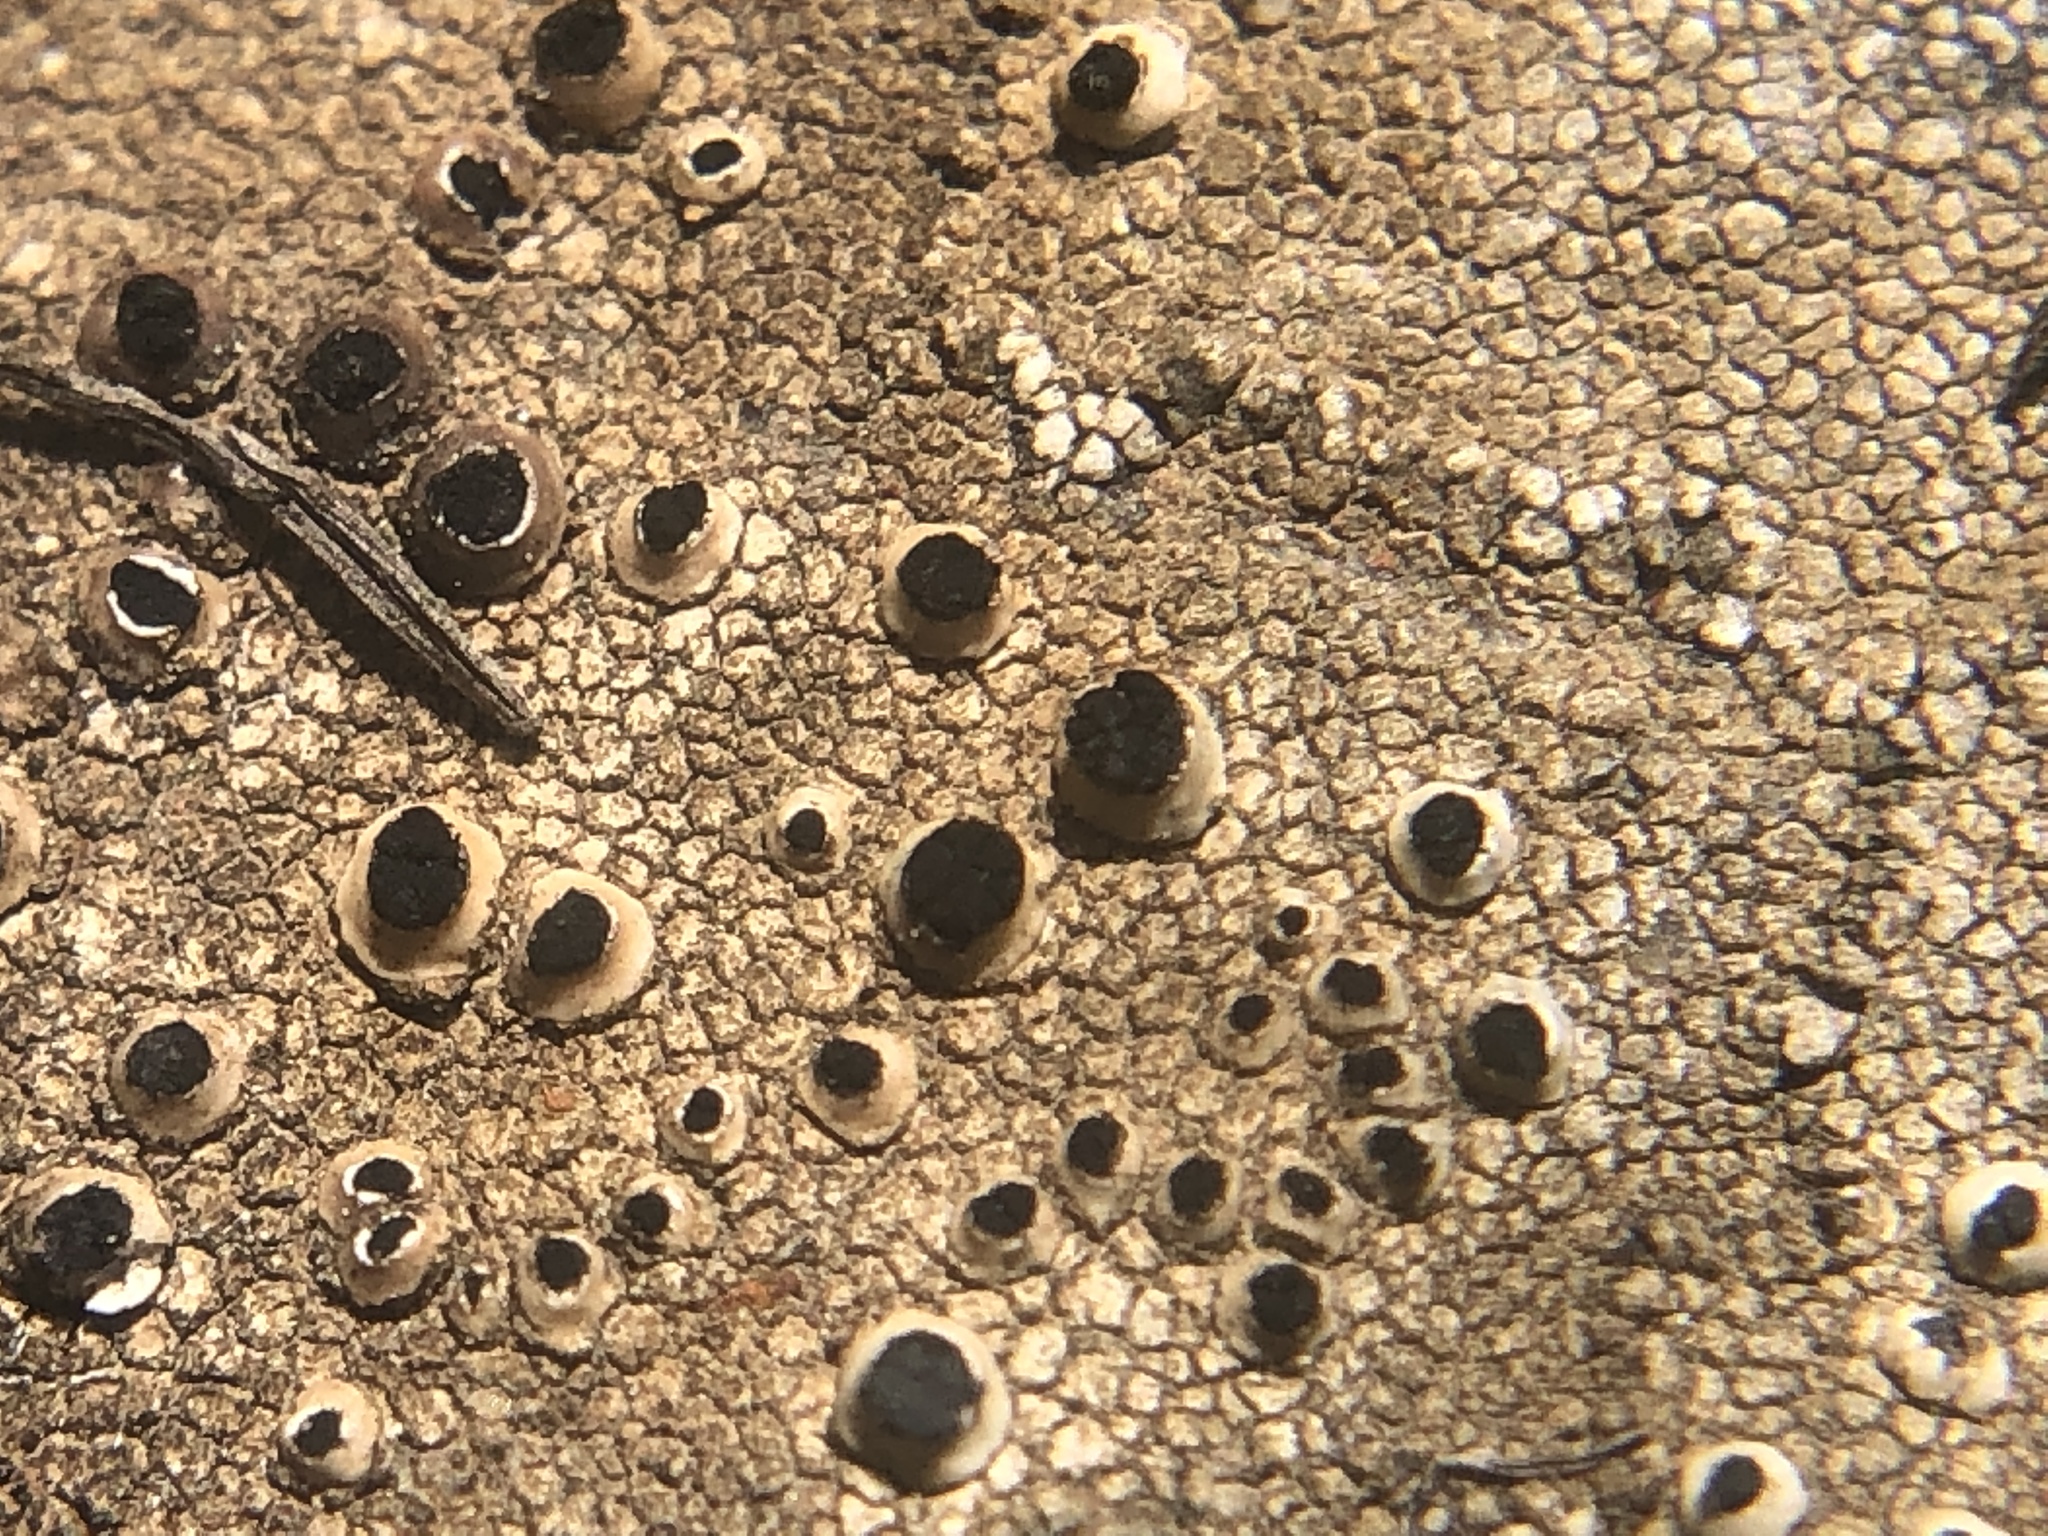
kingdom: Fungi
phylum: Ascomycota
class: Lecanoromycetes
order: Caliciales
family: Caliciaceae
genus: Thelomma
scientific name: Thelomma mammosum
